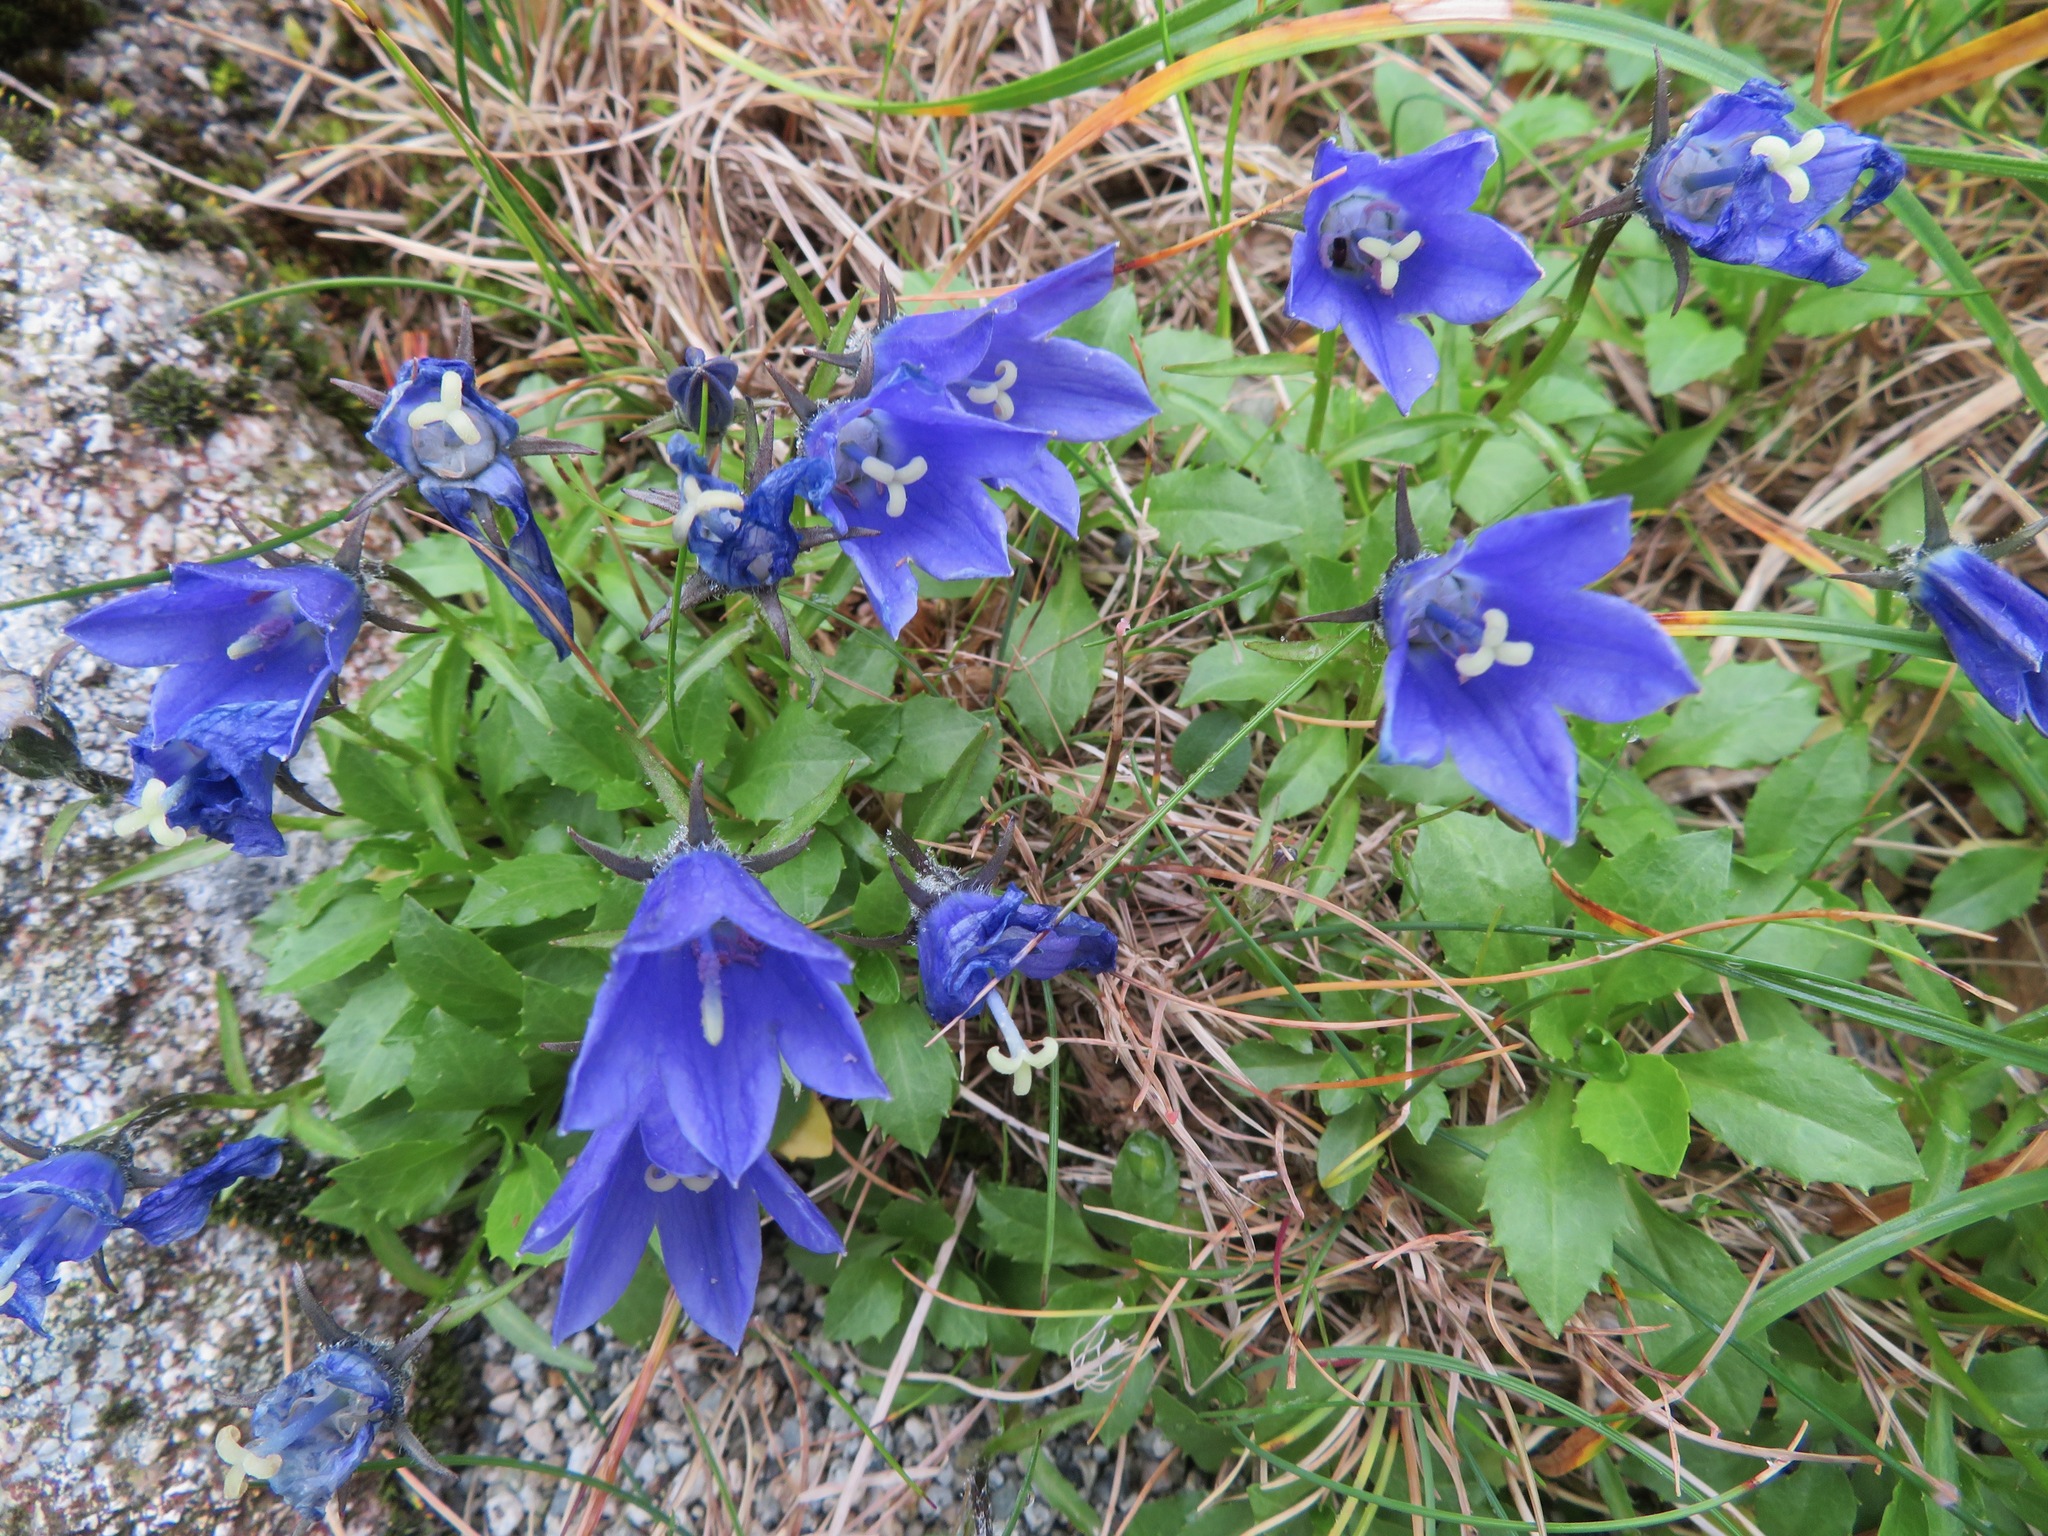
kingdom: Plantae
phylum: Tracheophyta
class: Magnoliopsida
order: Asterales
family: Campanulaceae
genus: Campanula
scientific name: Campanula lasiocarpa
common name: Mountain harebell
